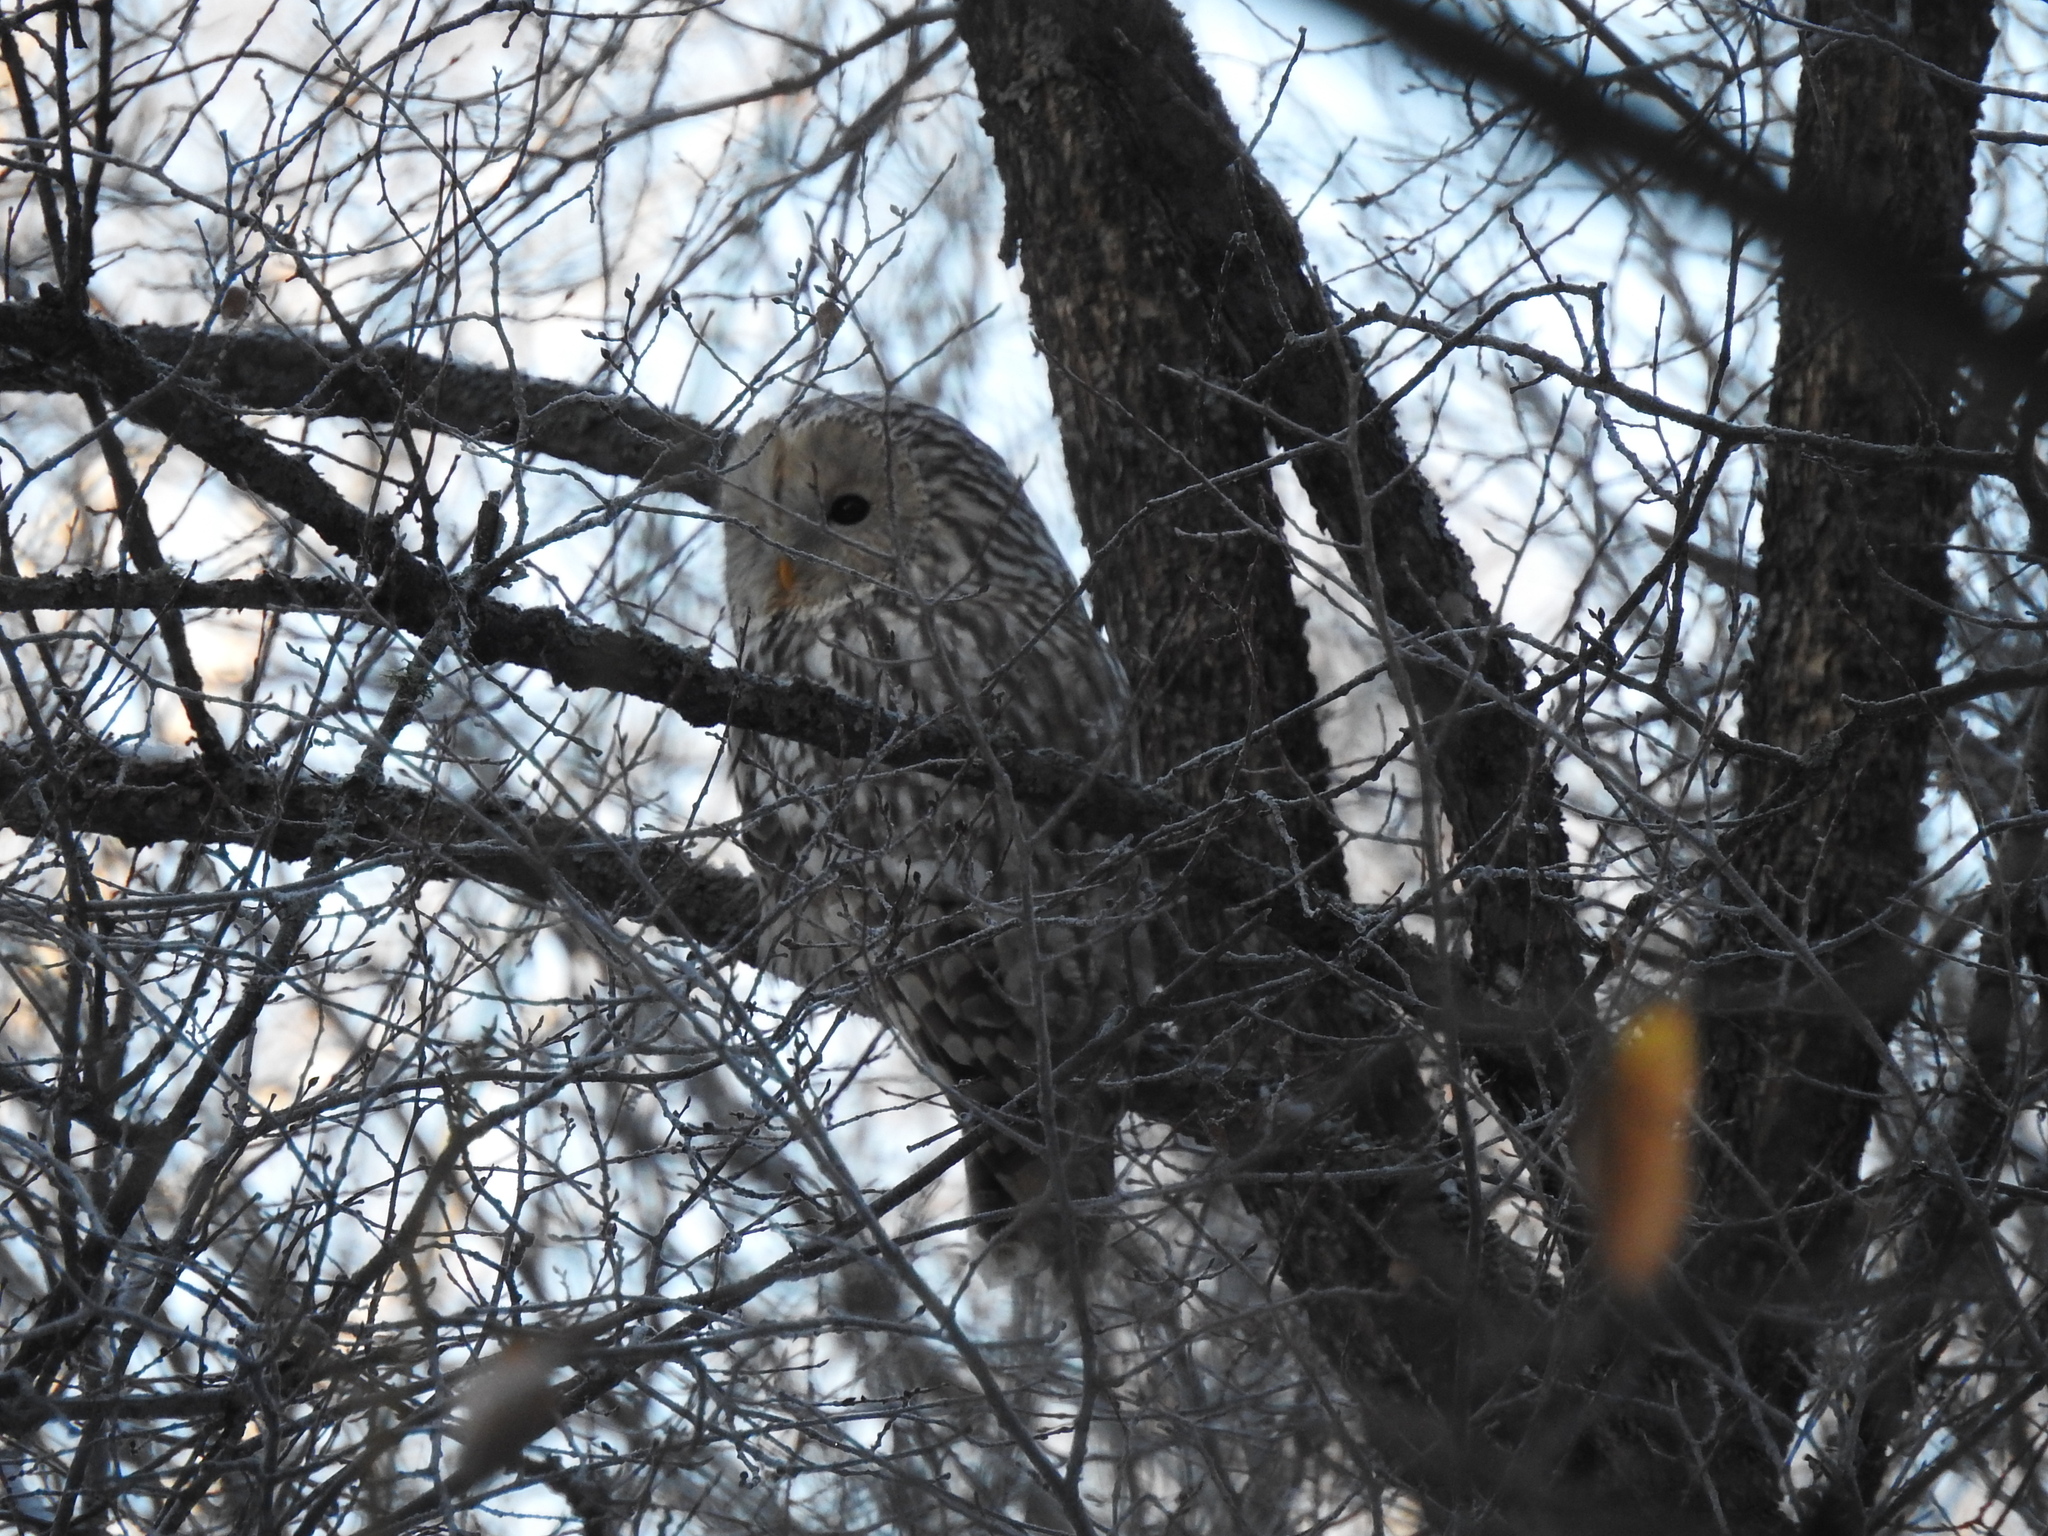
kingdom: Animalia
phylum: Chordata
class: Aves
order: Strigiformes
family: Strigidae
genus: Strix
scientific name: Strix uralensis
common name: Ural owl
